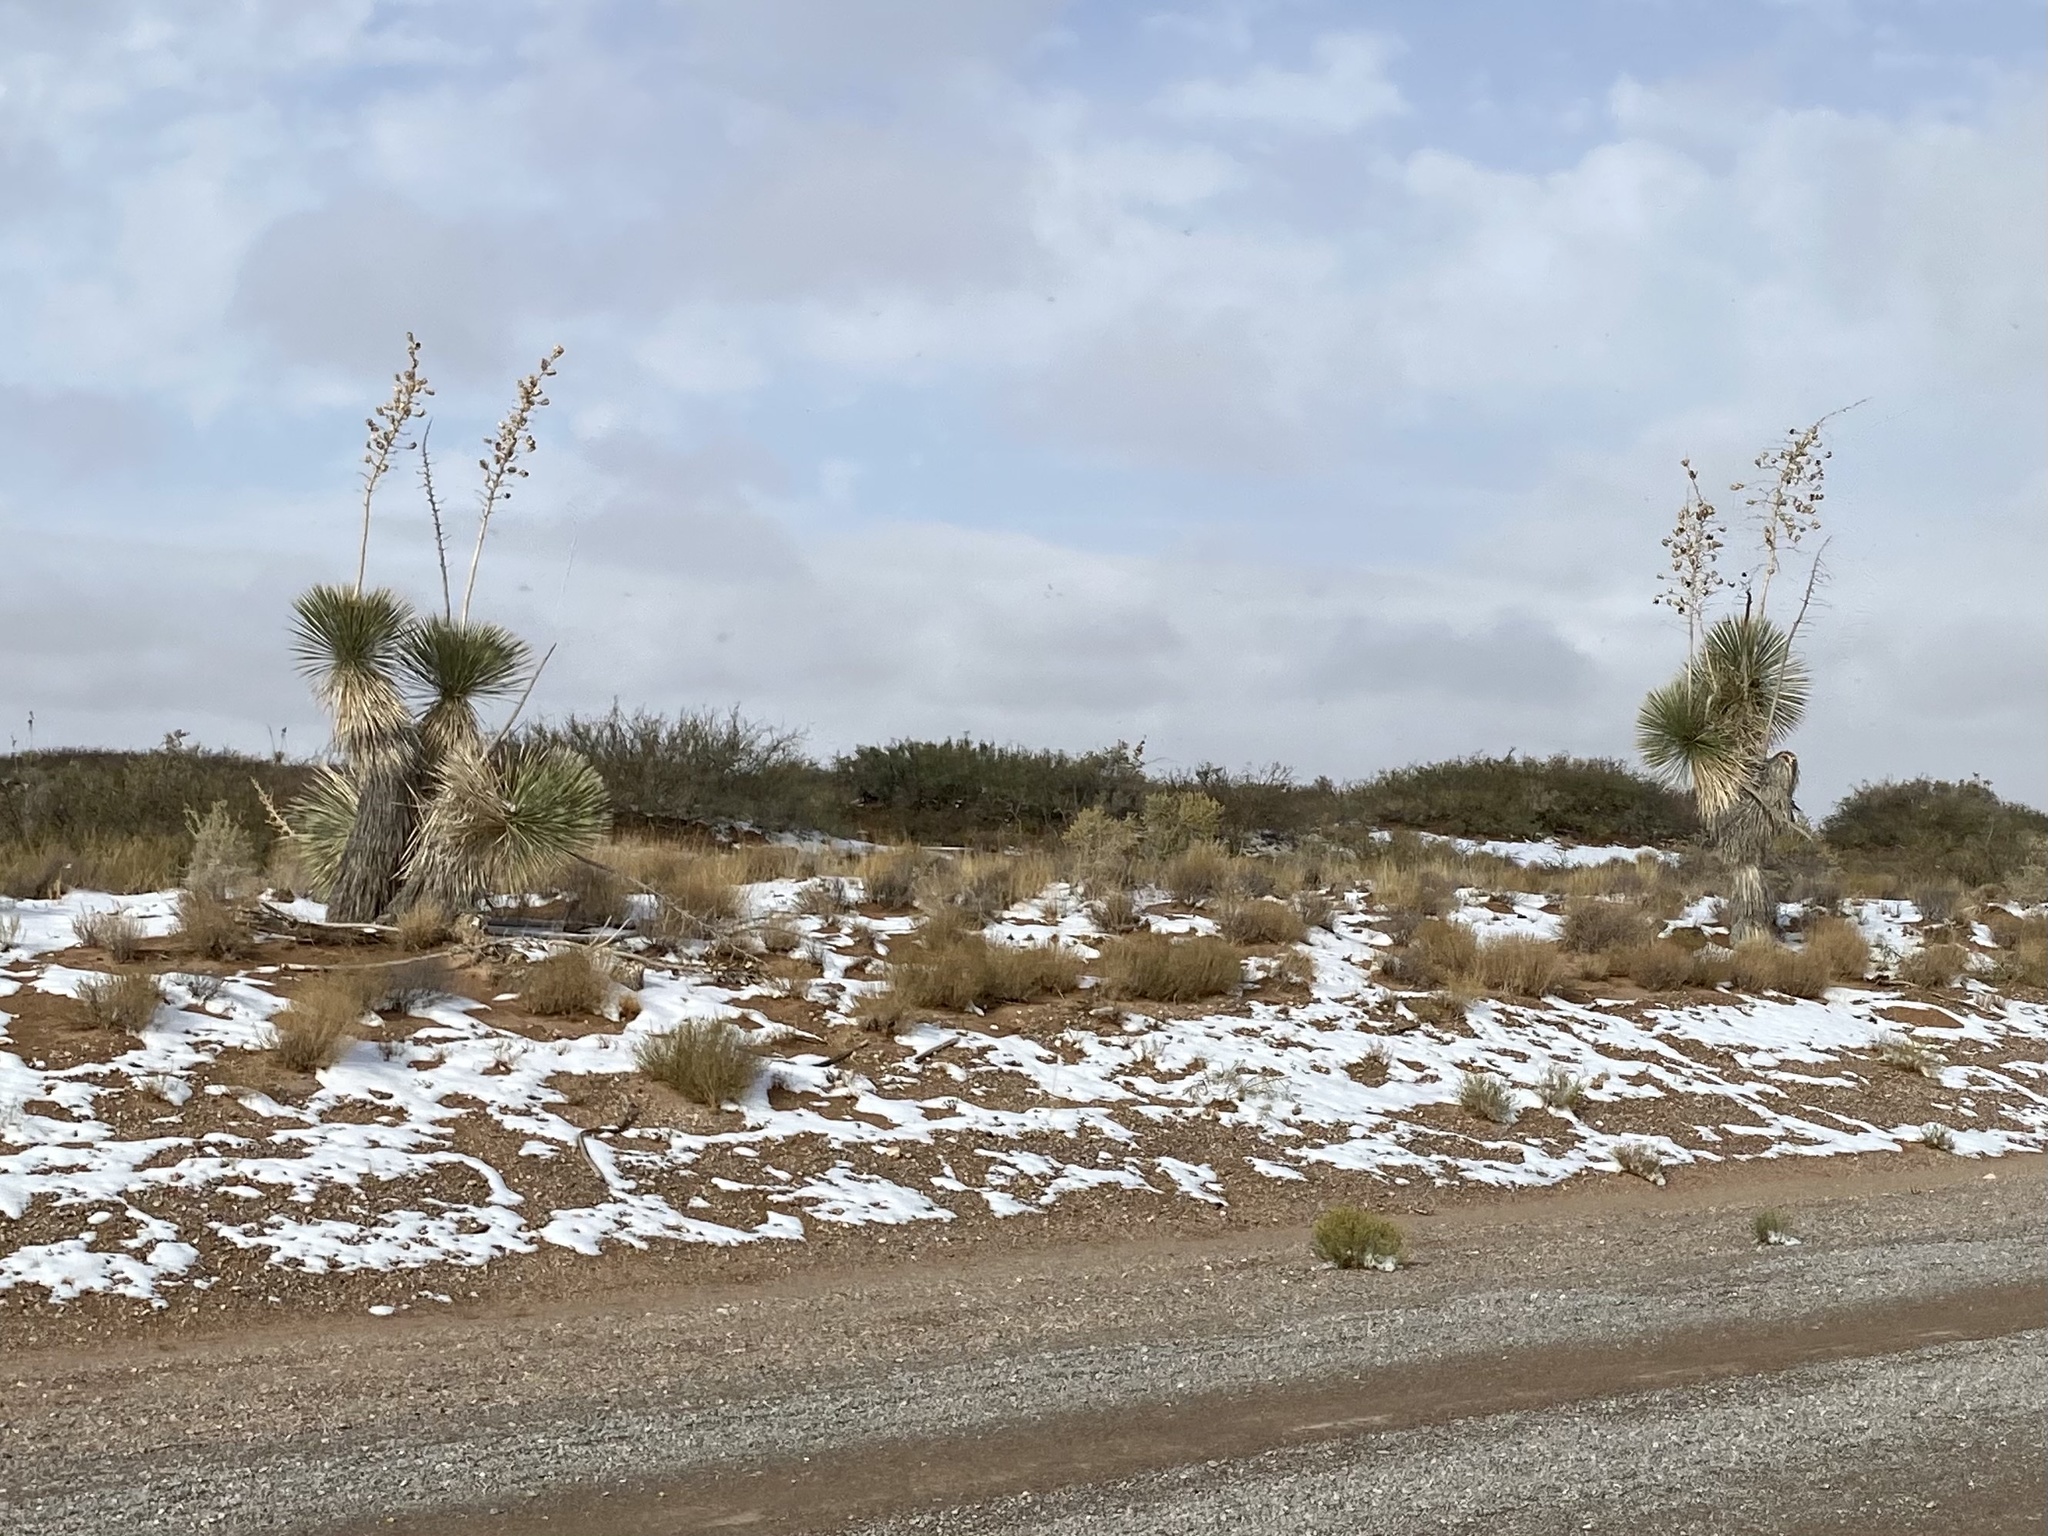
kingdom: Plantae
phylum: Tracheophyta
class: Liliopsida
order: Asparagales
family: Asparagaceae
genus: Yucca
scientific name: Yucca elata
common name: Palmella
